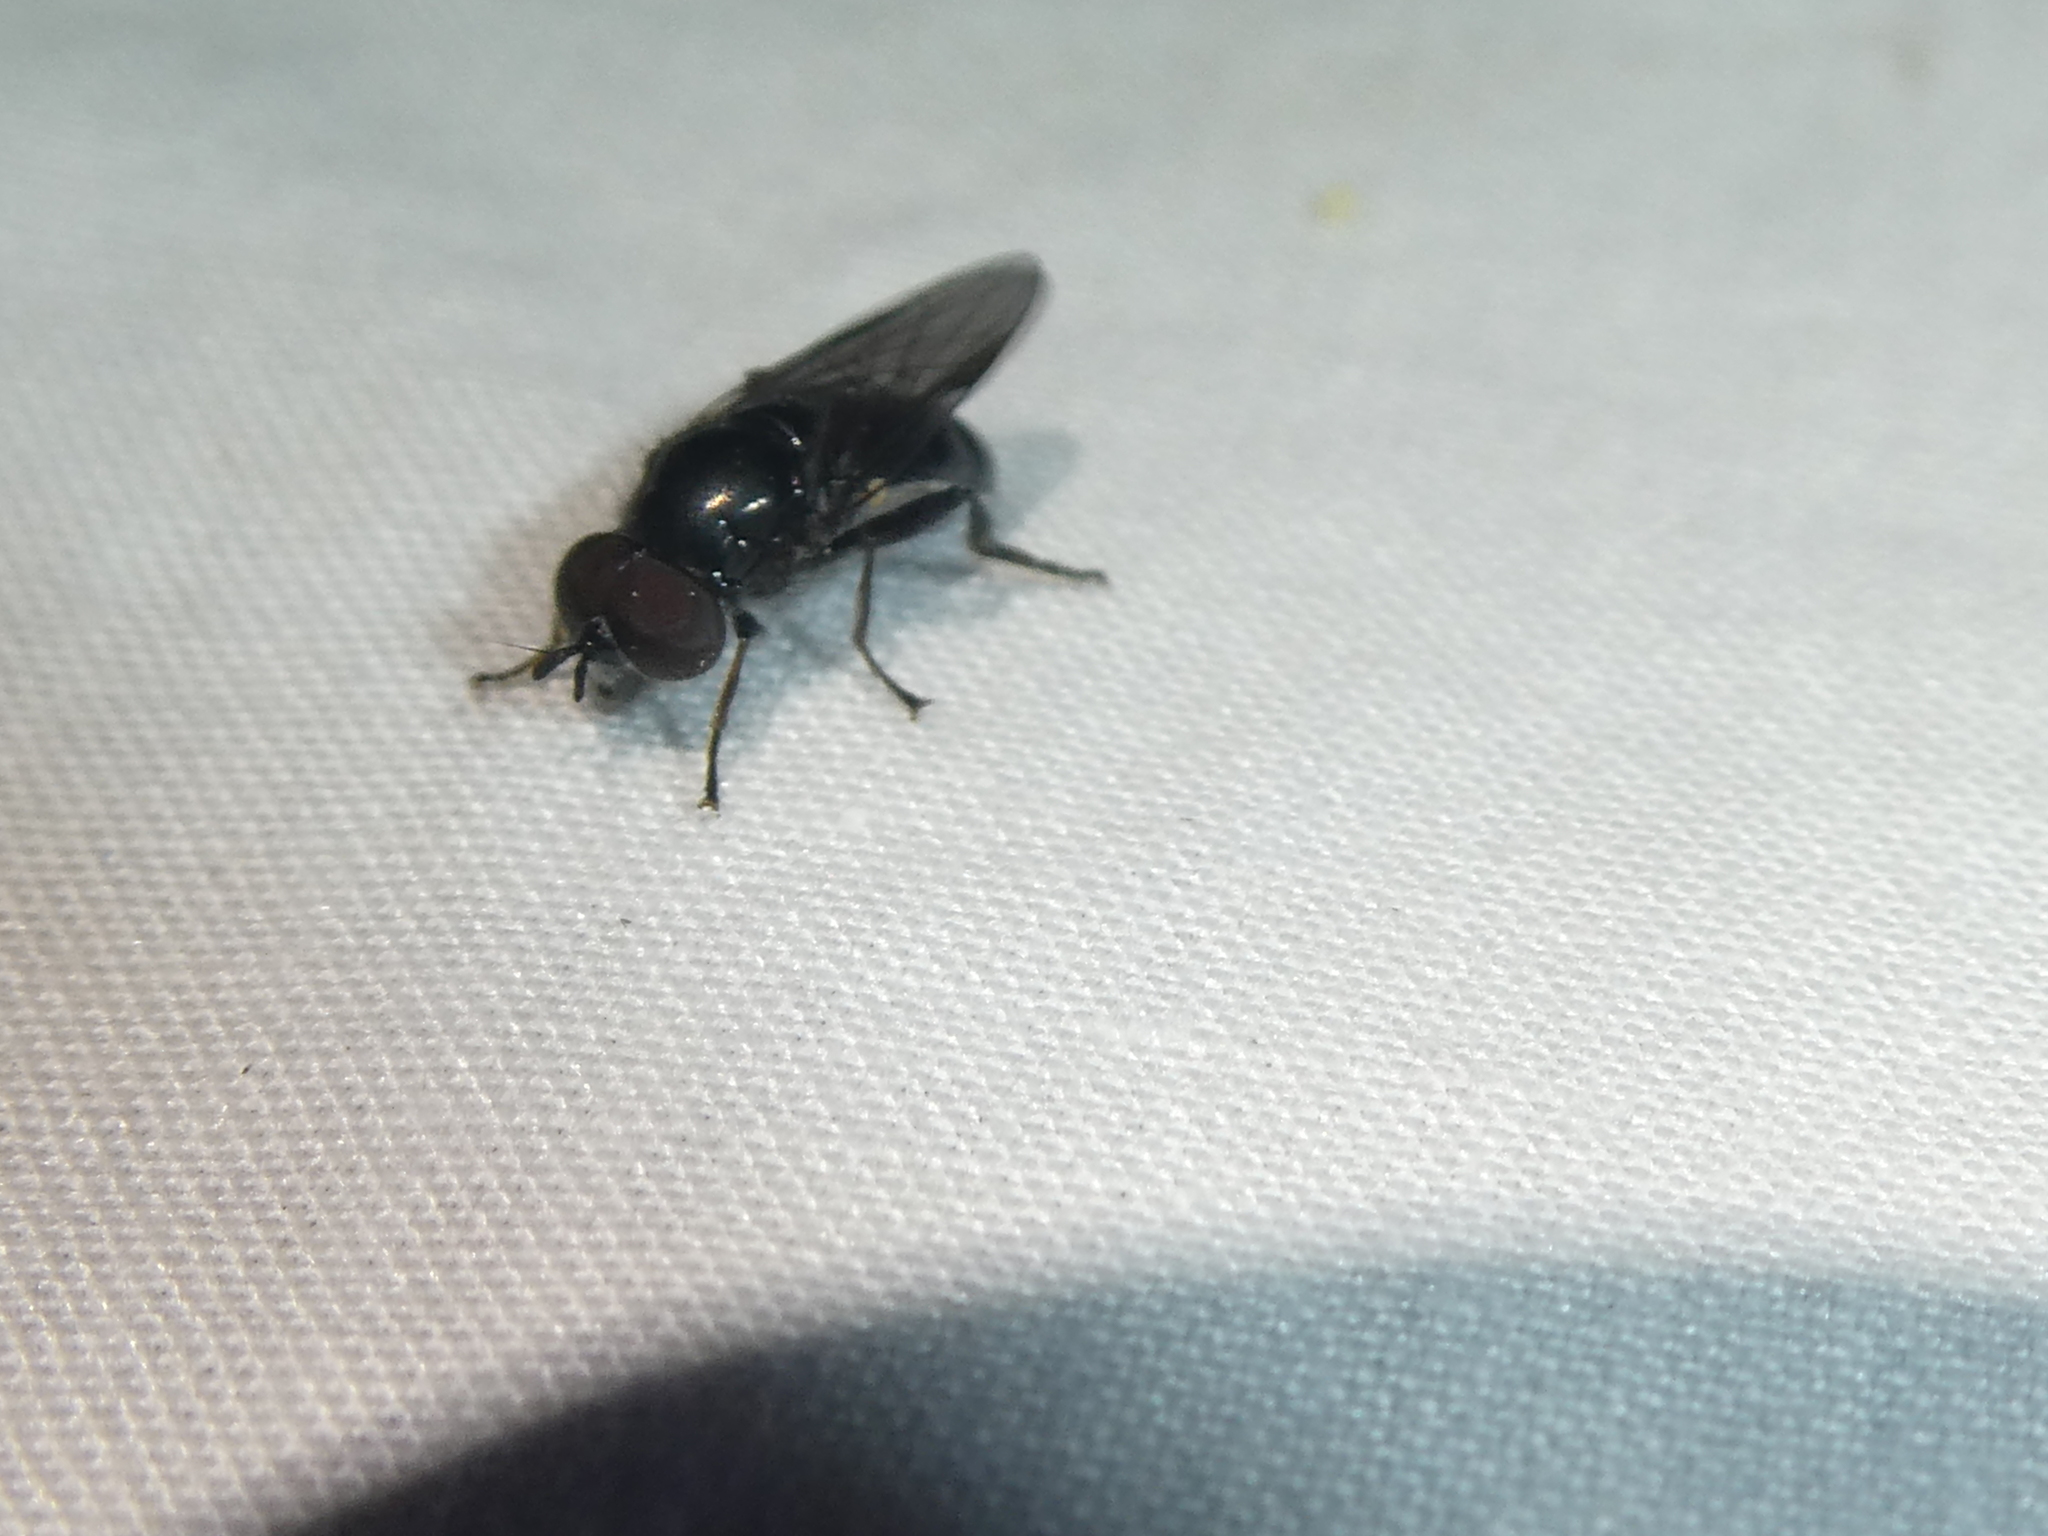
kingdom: Animalia
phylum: Arthropoda
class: Insecta
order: Diptera
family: Syrphidae
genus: Psilota
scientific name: Psilota decessum
